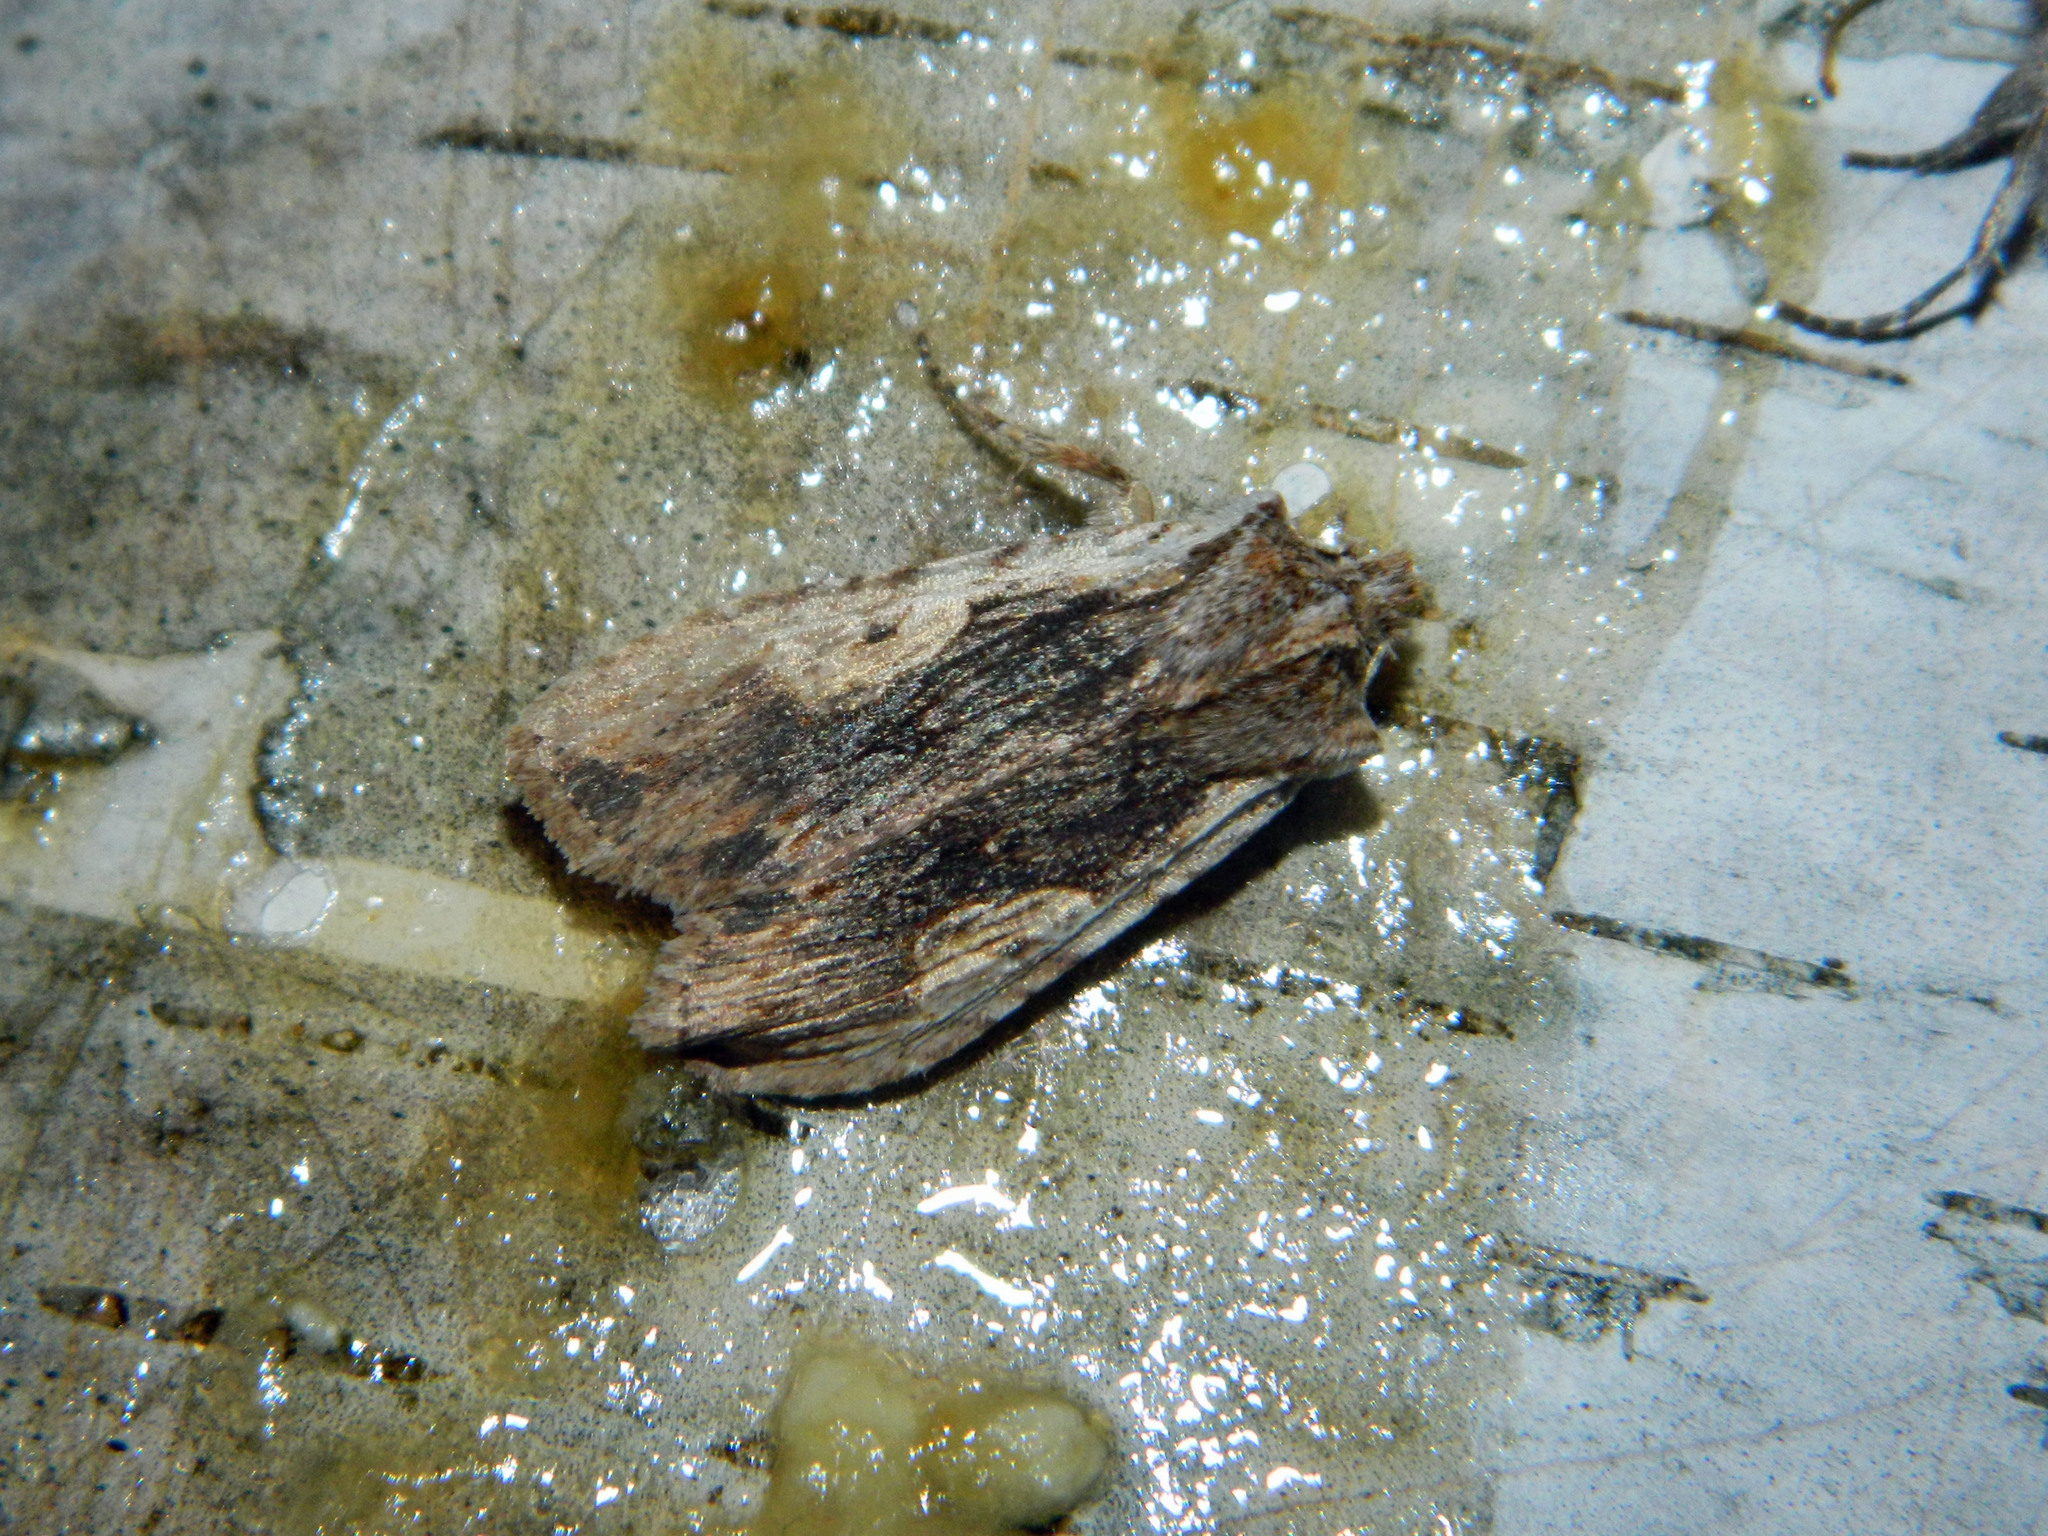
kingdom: Animalia
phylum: Arthropoda
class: Insecta
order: Lepidoptera
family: Noctuidae
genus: Lithophane
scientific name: Lithophane petulca
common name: Wanton pinion
